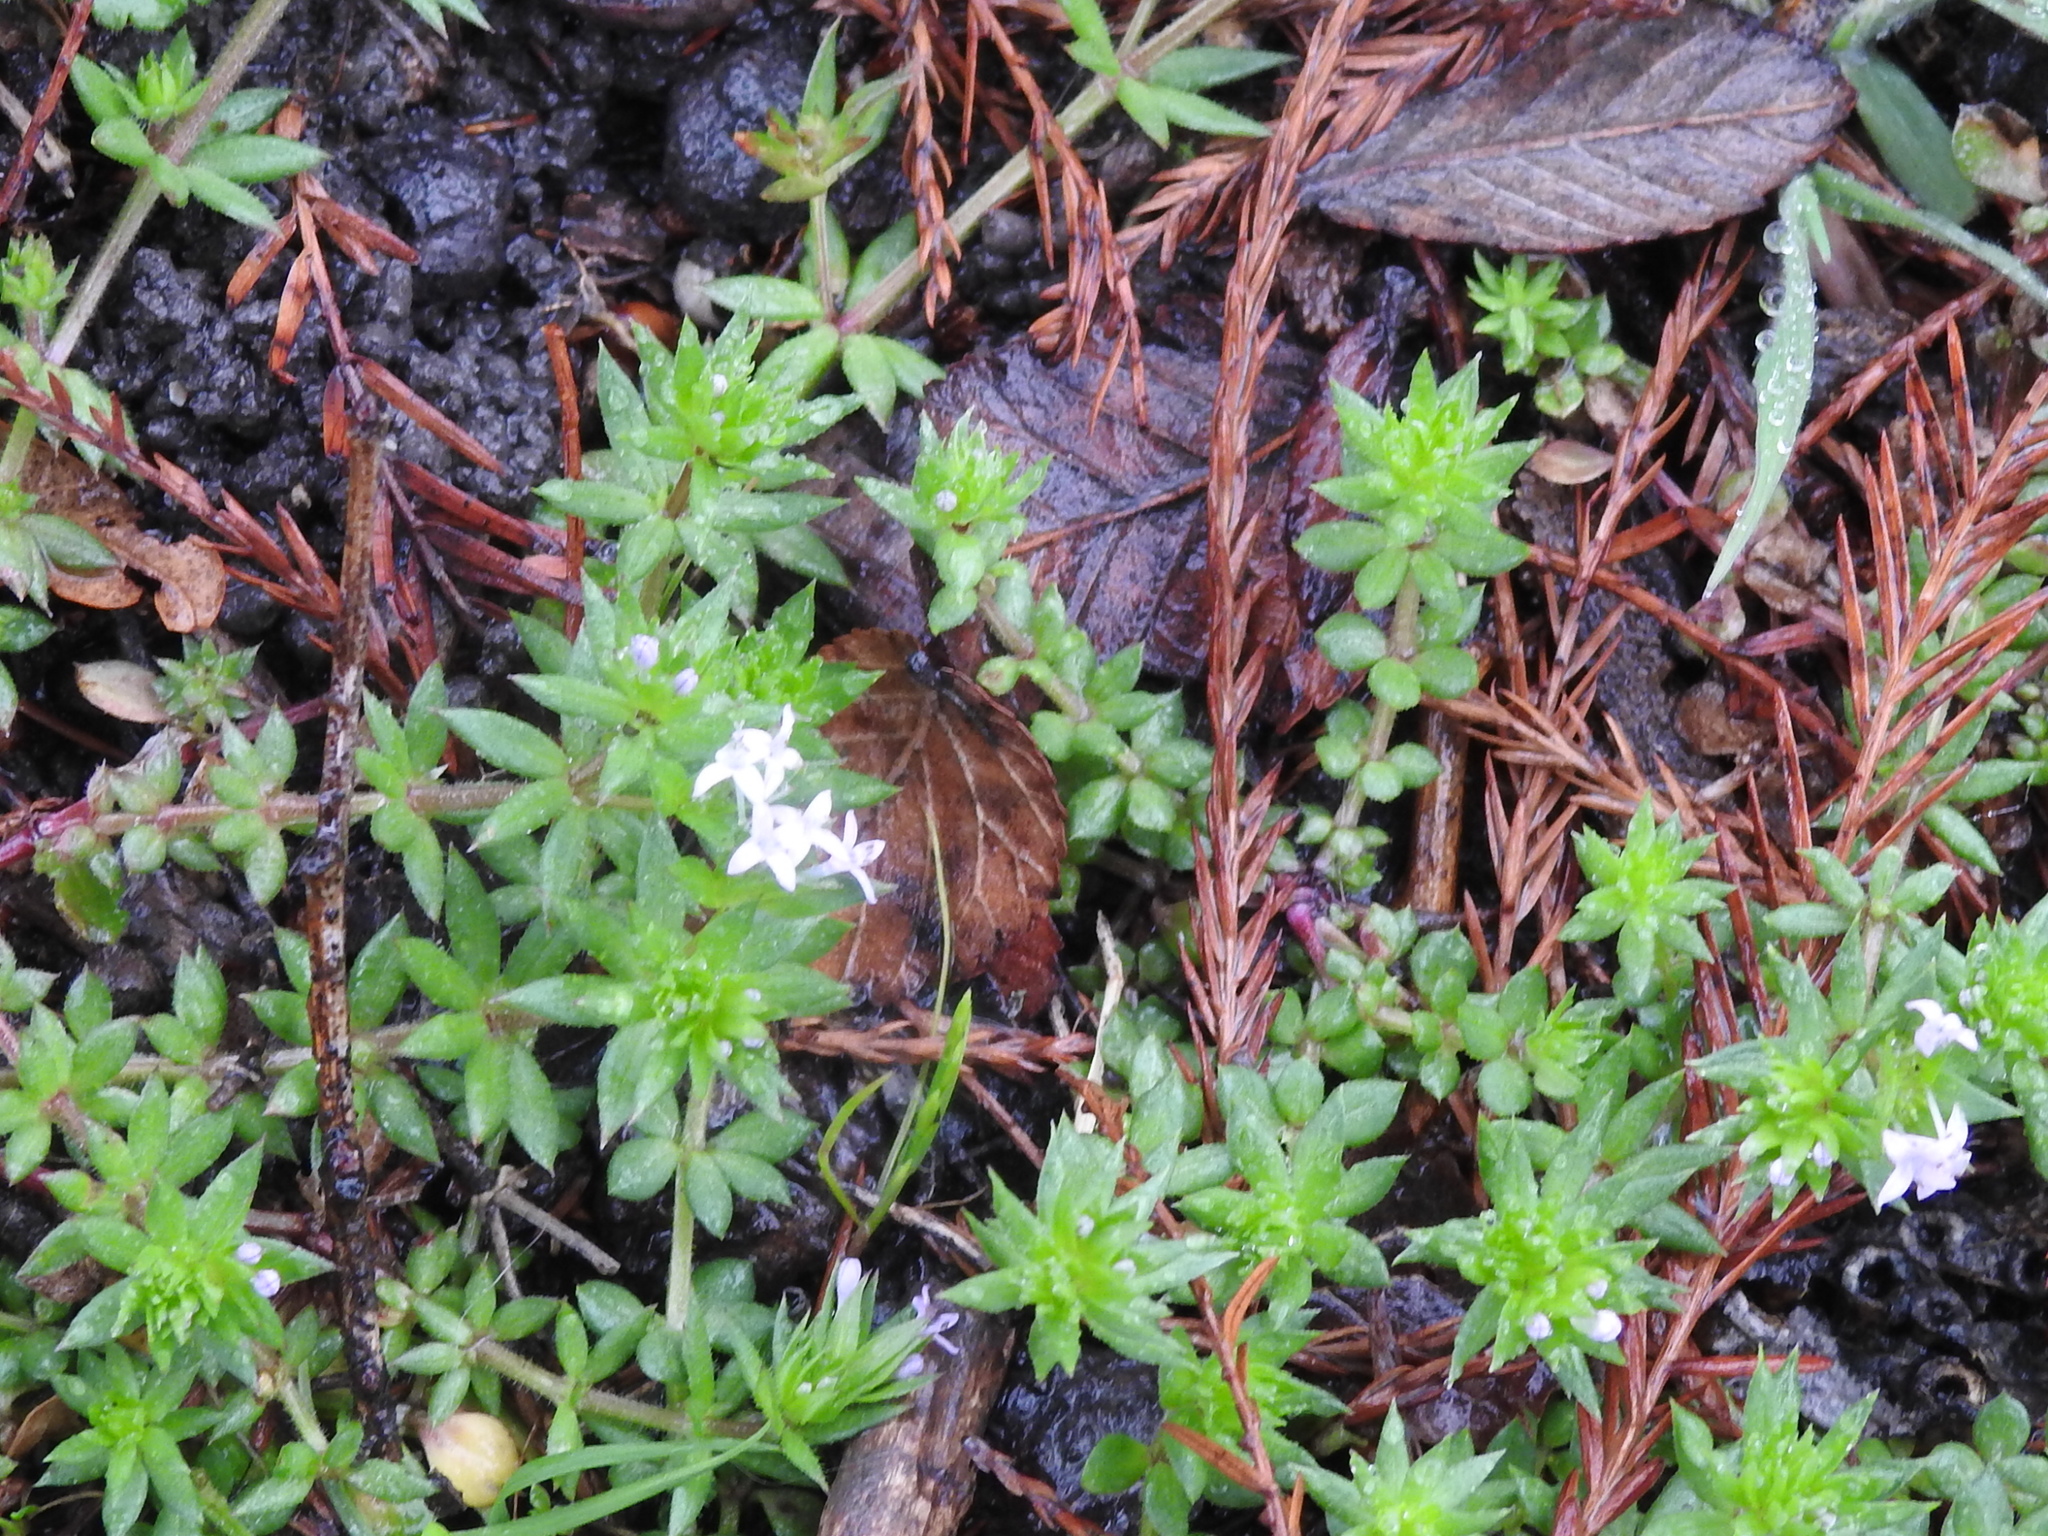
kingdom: Plantae
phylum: Tracheophyta
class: Magnoliopsida
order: Gentianales
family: Rubiaceae
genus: Sherardia
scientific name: Sherardia arvensis
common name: Field madder
